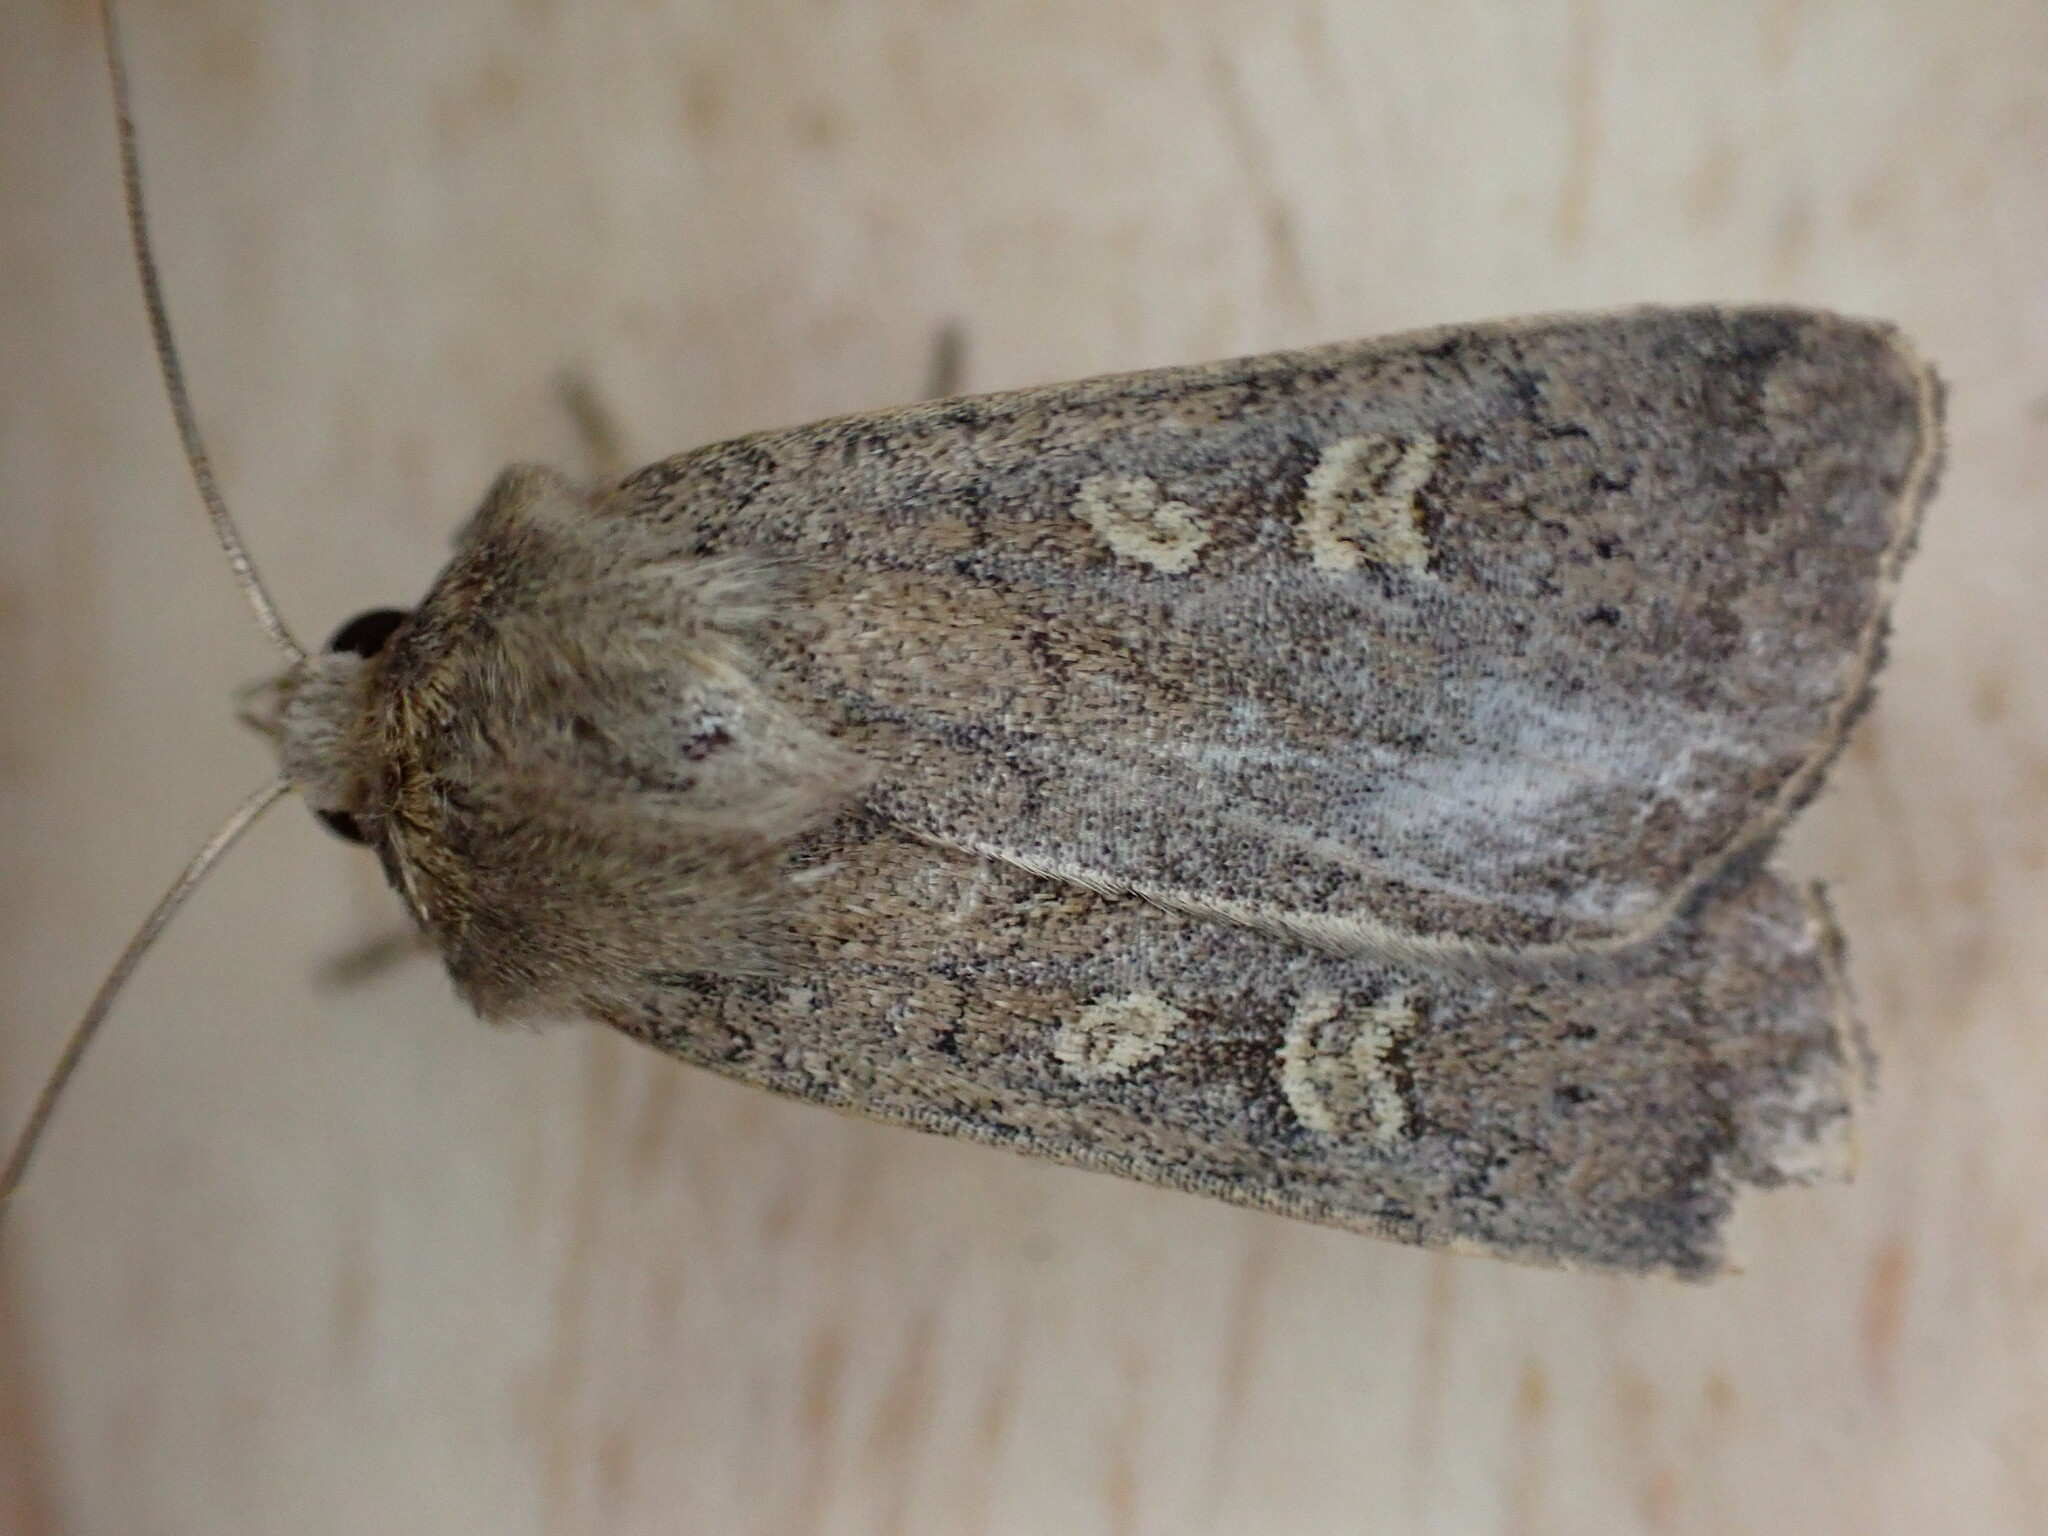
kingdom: Animalia
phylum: Arthropoda
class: Insecta
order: Lepidoptera
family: Noctuidae
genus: Xestia
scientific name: Xestia xanthographa
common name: Square-spot rustic
